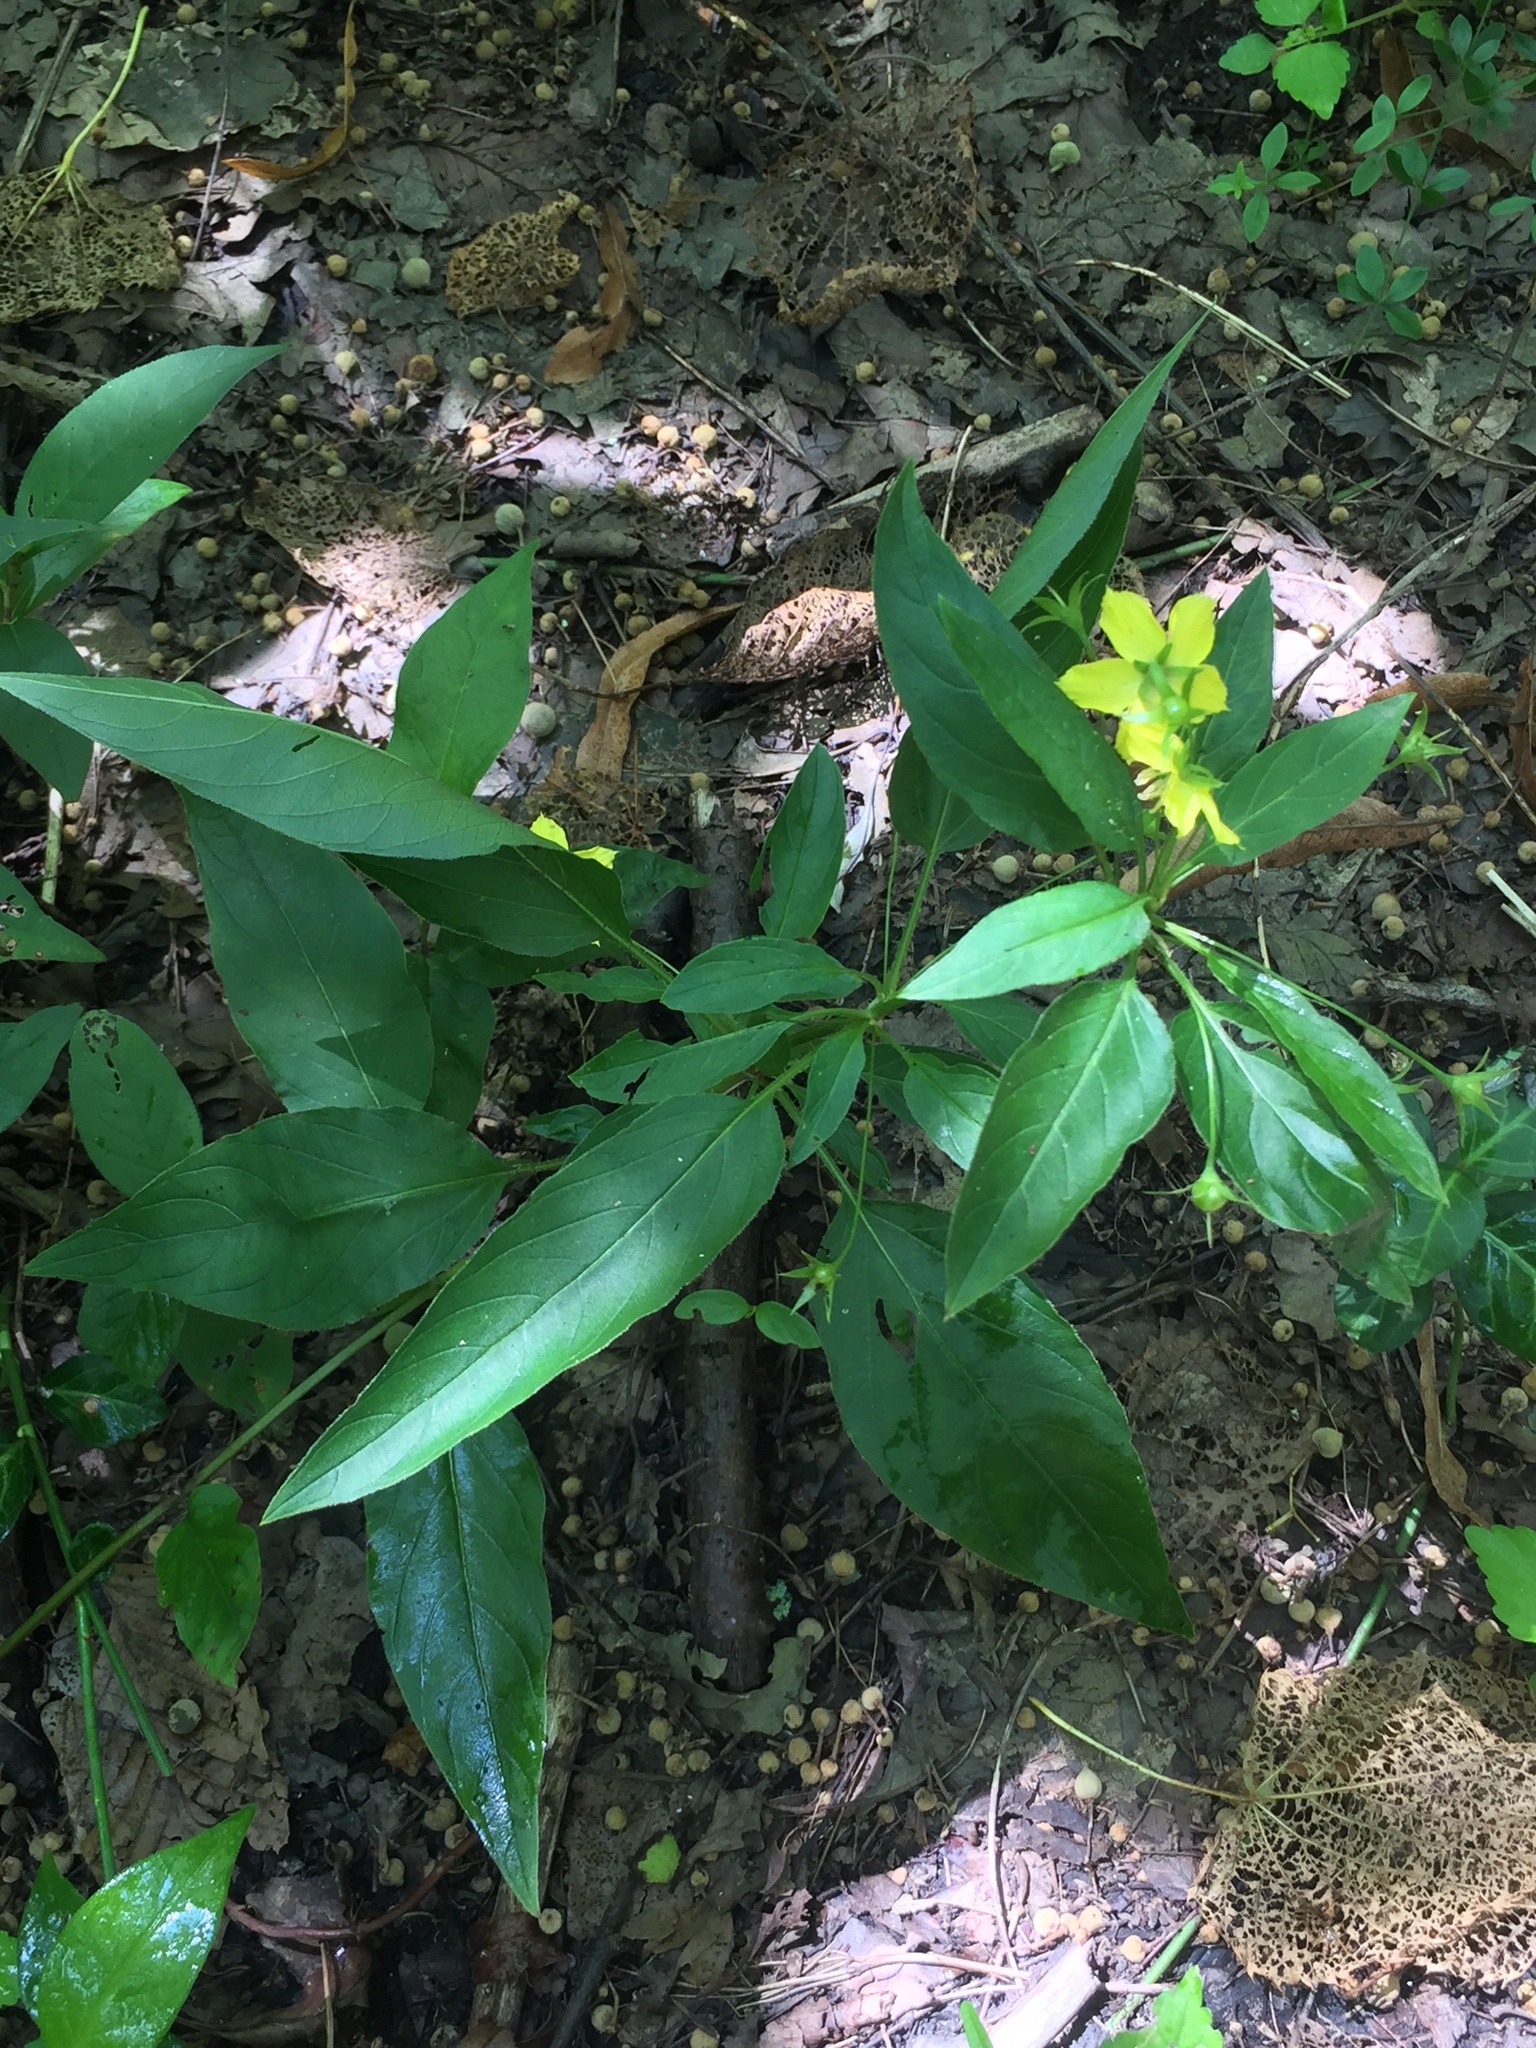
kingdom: Plantae
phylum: Tracheophyta
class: Magnoliopsida
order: Ericales
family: Primulaceae
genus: Lysimachia
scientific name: Lysimachia ciliata
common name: Fringed loosestrife
